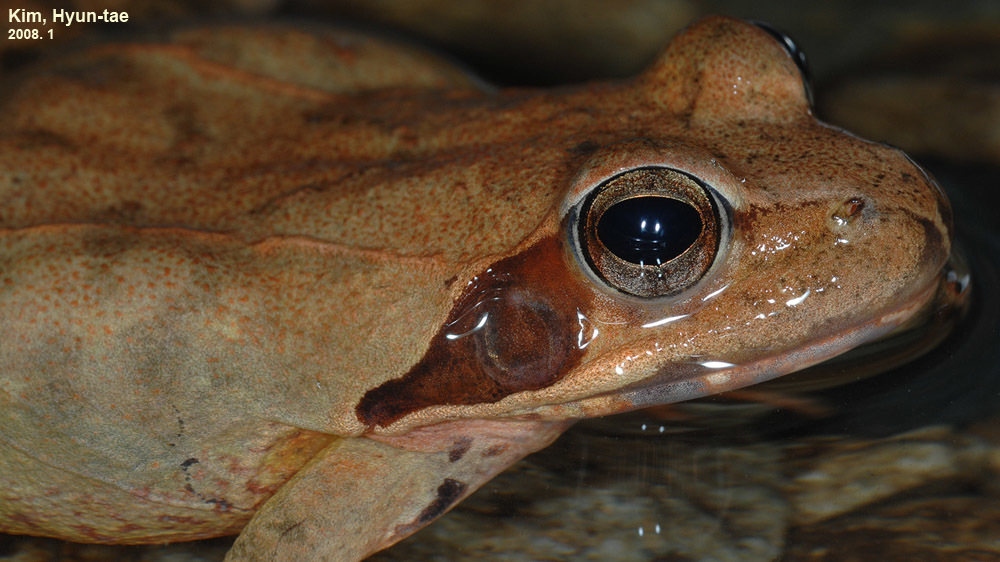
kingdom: Animalia
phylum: Chordata
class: Amphibia
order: Anura
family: Ranidae
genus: Rana
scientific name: Rana uenoi
